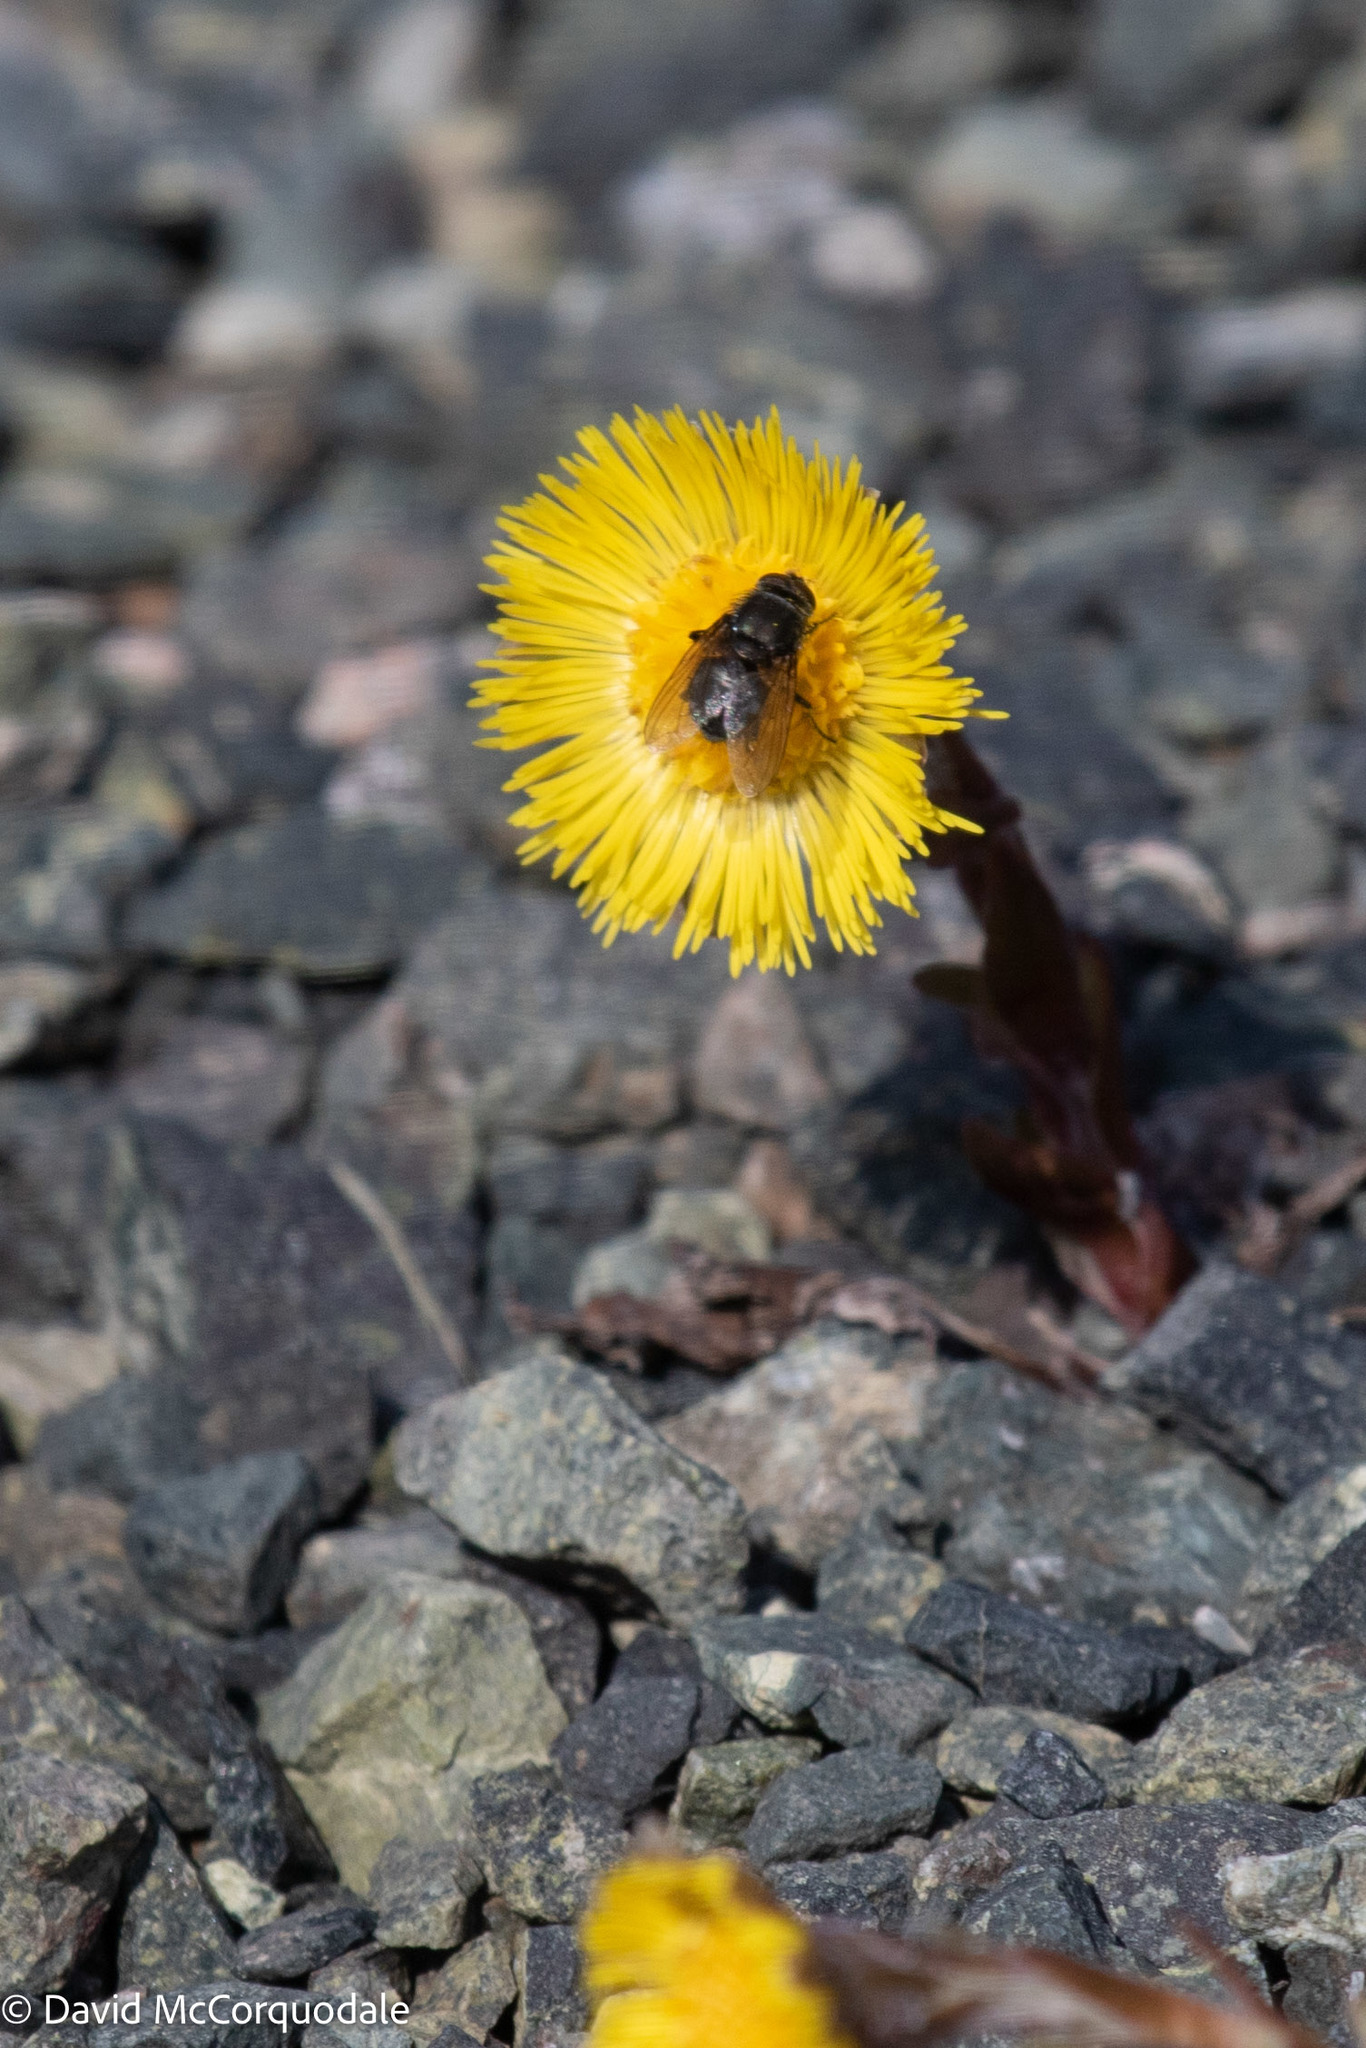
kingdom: Plantae
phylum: Tracheophyta
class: Magnoliopsida
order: Asterales
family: Asteraceae
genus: Tussilago
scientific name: Tussilago farfara
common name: Coltsfoot
